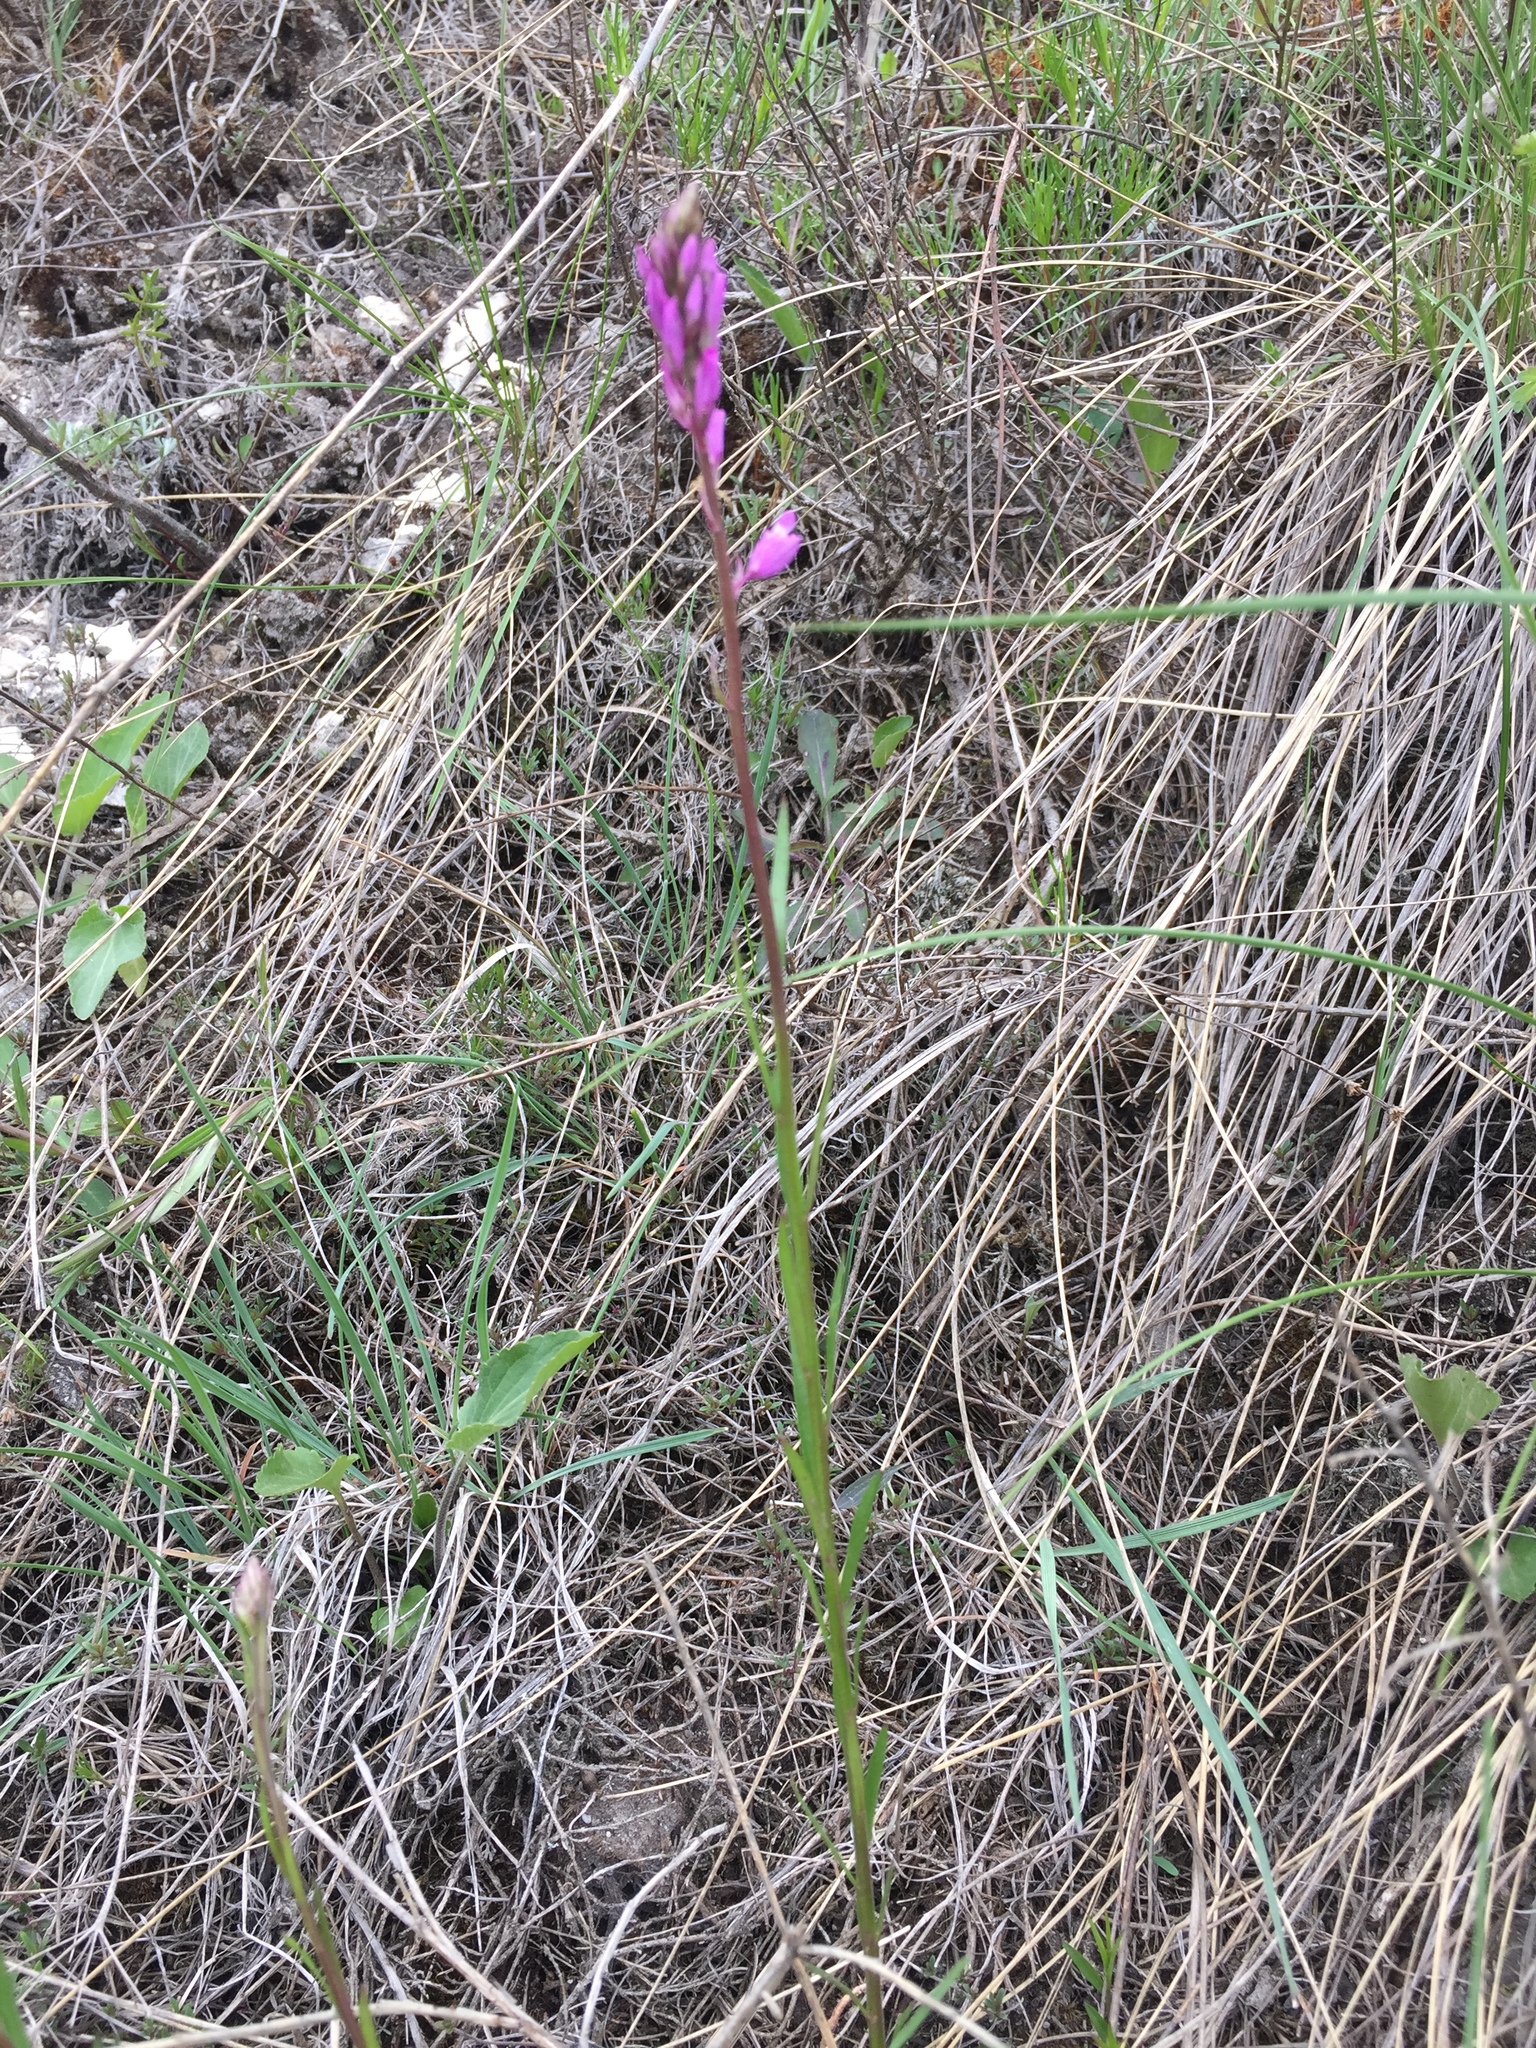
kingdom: Plantae
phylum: Tracheophyta
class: Magnoliopsida
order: Fabales
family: Polygalaceae
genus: Polygala
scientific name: Polygala nicaeensis
